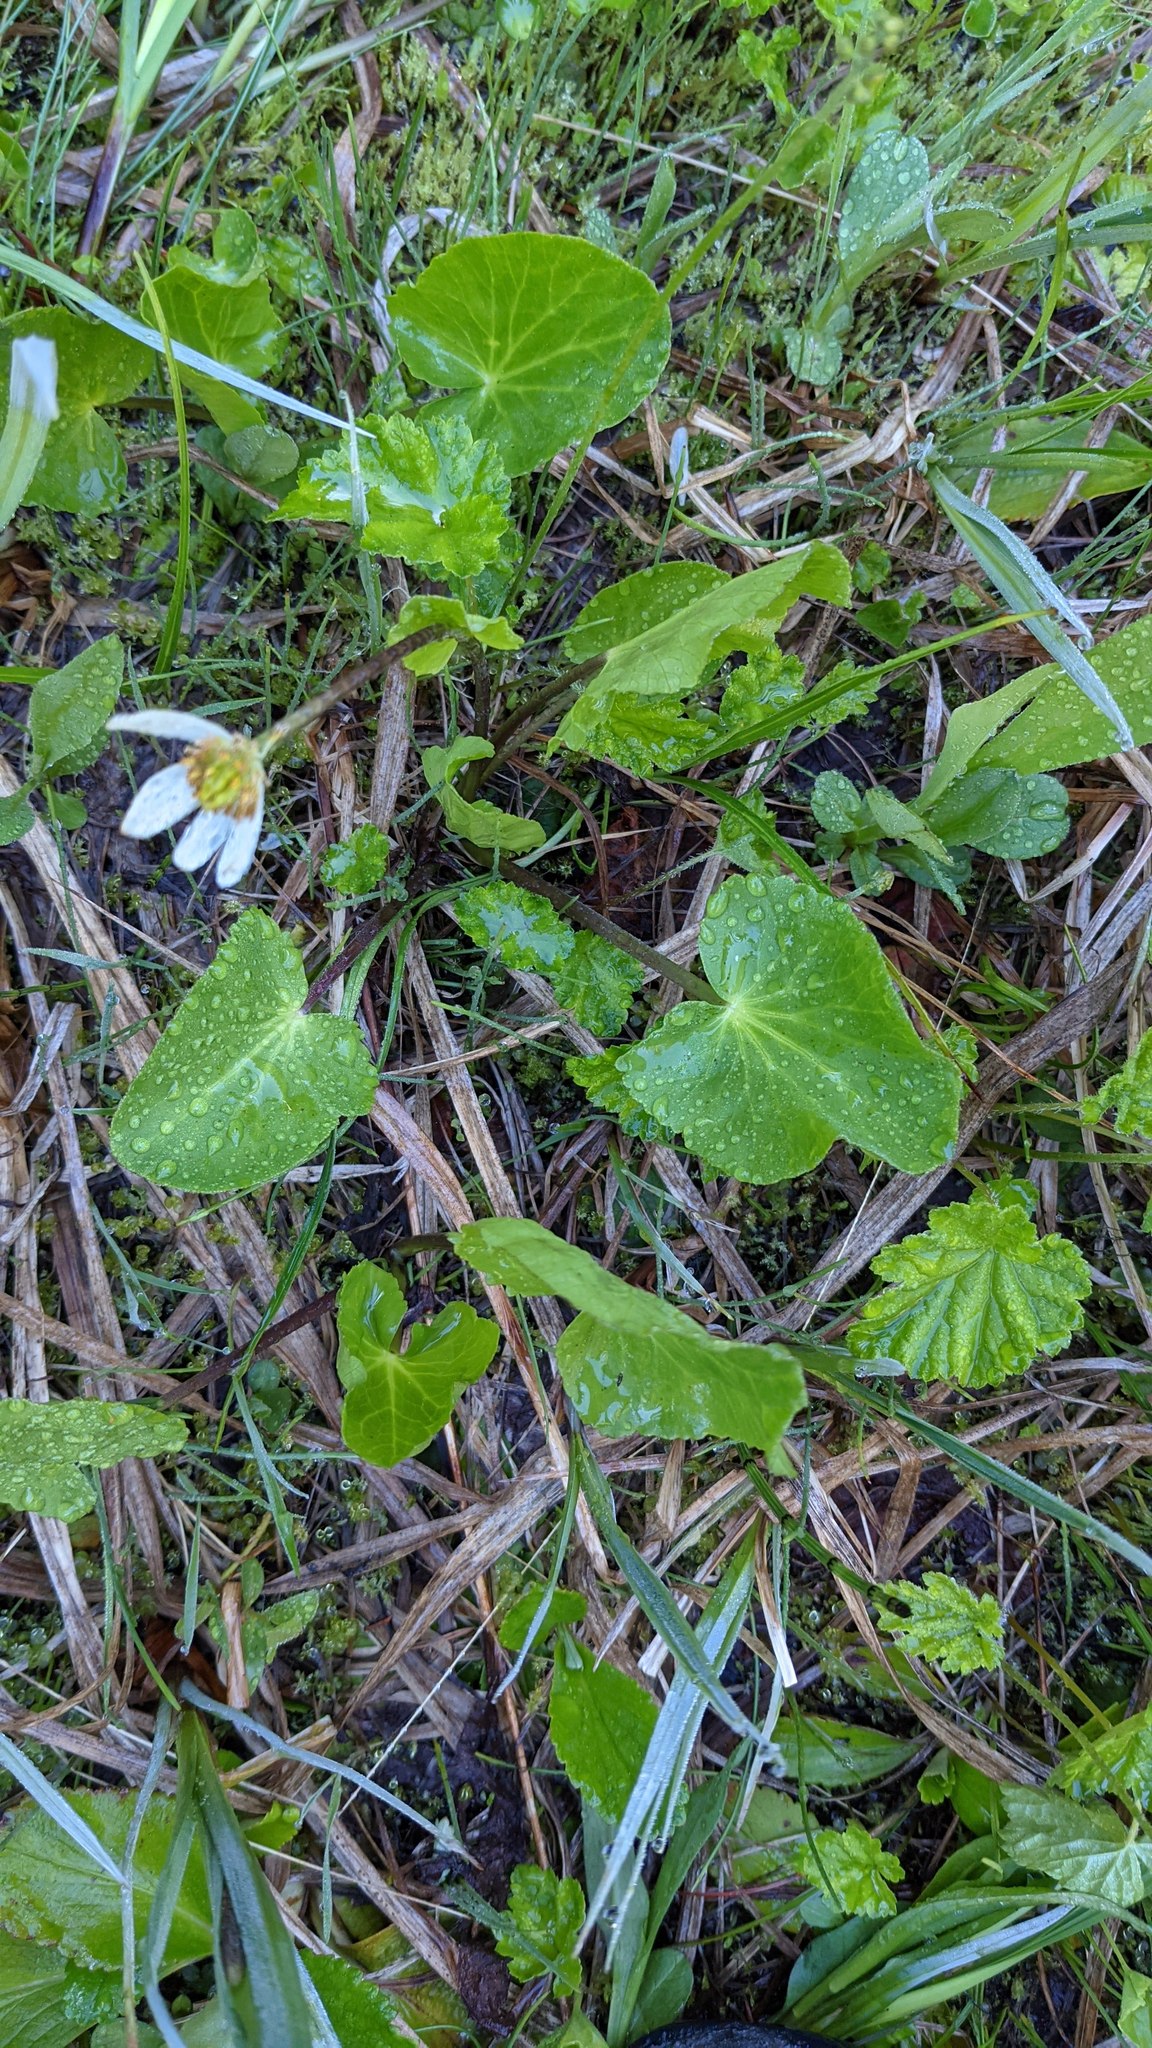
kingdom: Plantae
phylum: Tracheophyta
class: Magnoliopsida
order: Ranunculales
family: Ranunculaceae
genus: Caltha
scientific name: Caltha leptosepala
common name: Elkslip
